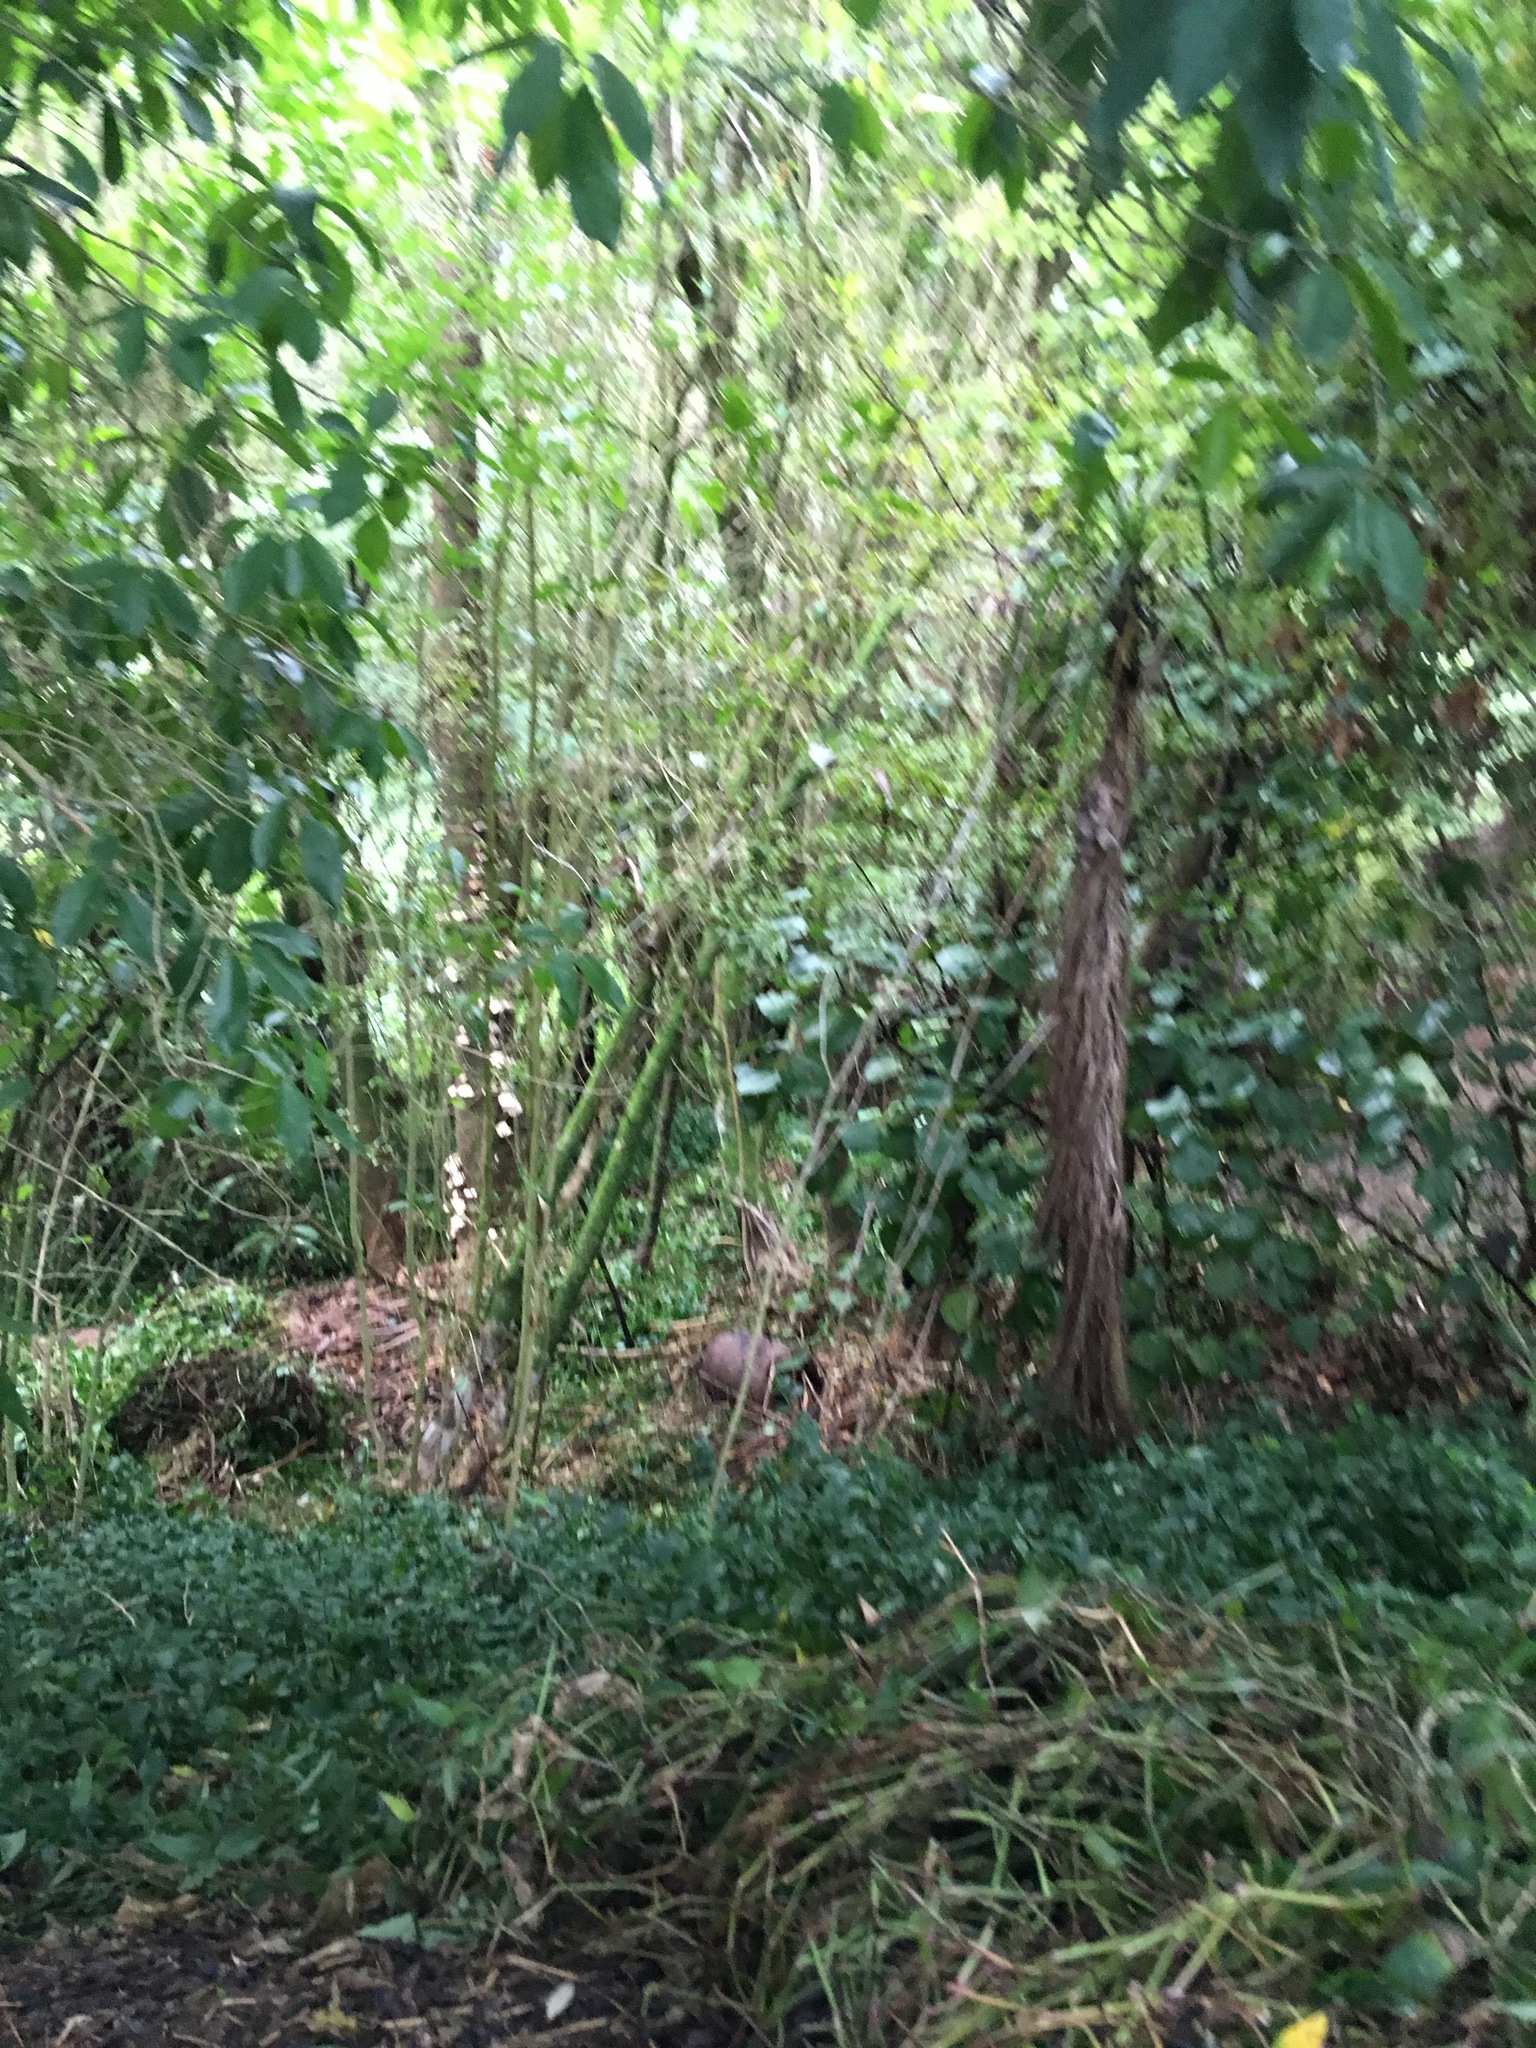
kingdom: Plantae
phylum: Tracheophyta
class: Liliopsida
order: Commelinales
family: Commelinaceae
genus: Tradescantia
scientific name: Tradescantia fluminensis
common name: Wandering-jew
